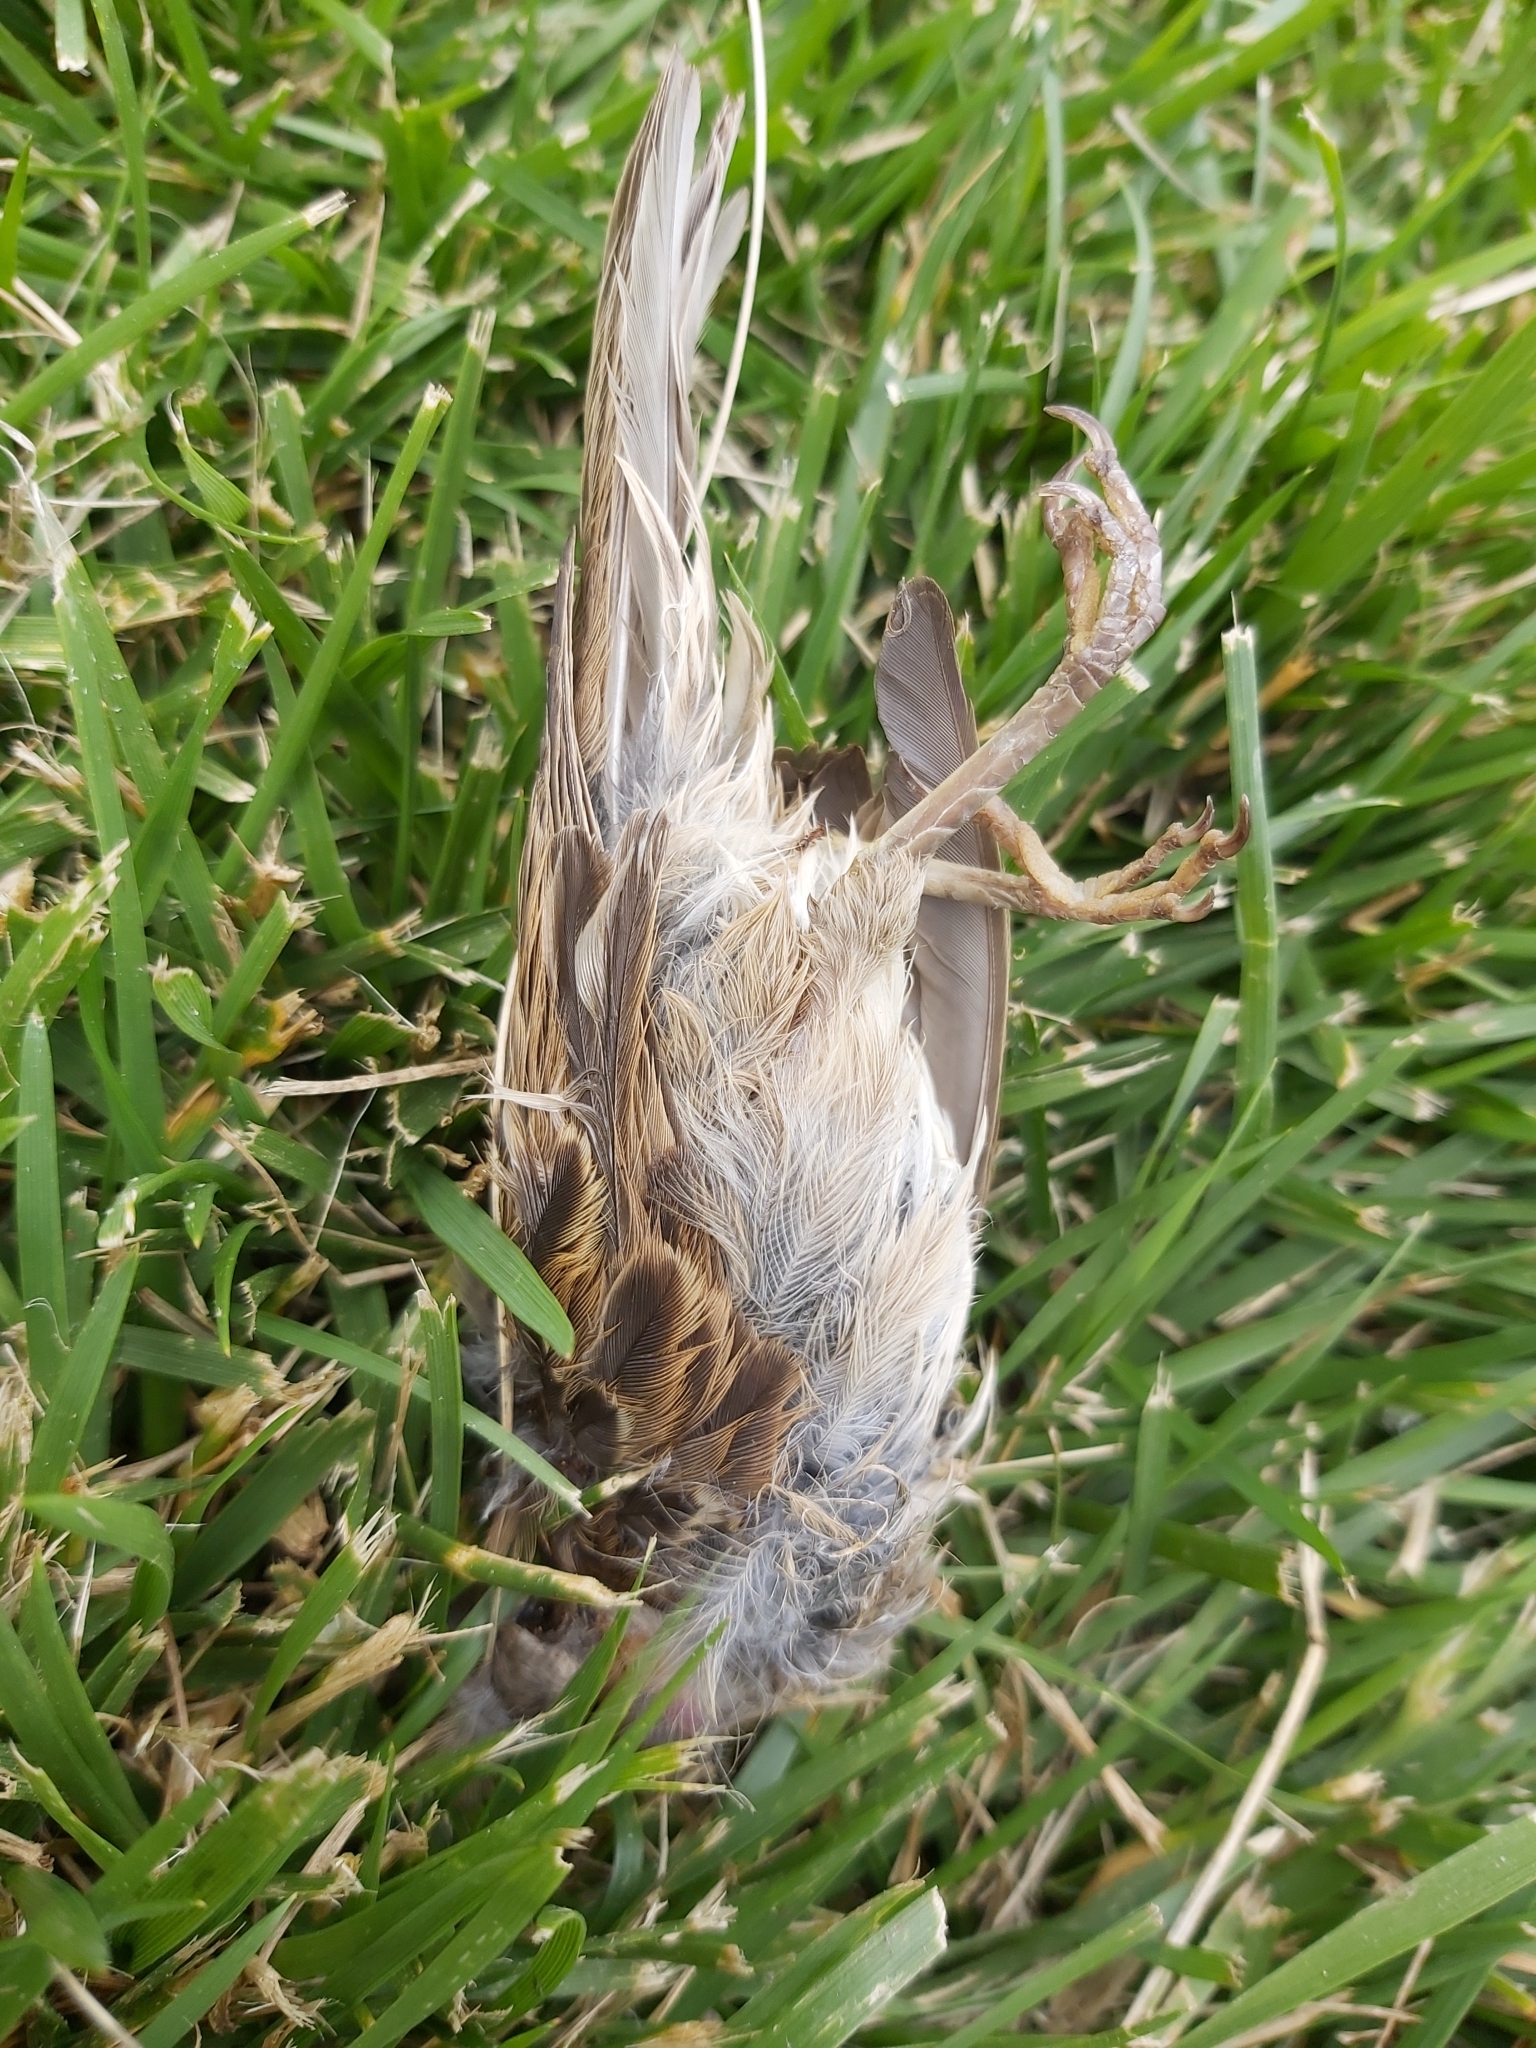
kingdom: Animalia
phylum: Chordata
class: Aves
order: Passeriformes
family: Passeridae
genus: Passer
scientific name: Passer domesticus
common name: House sparrow
